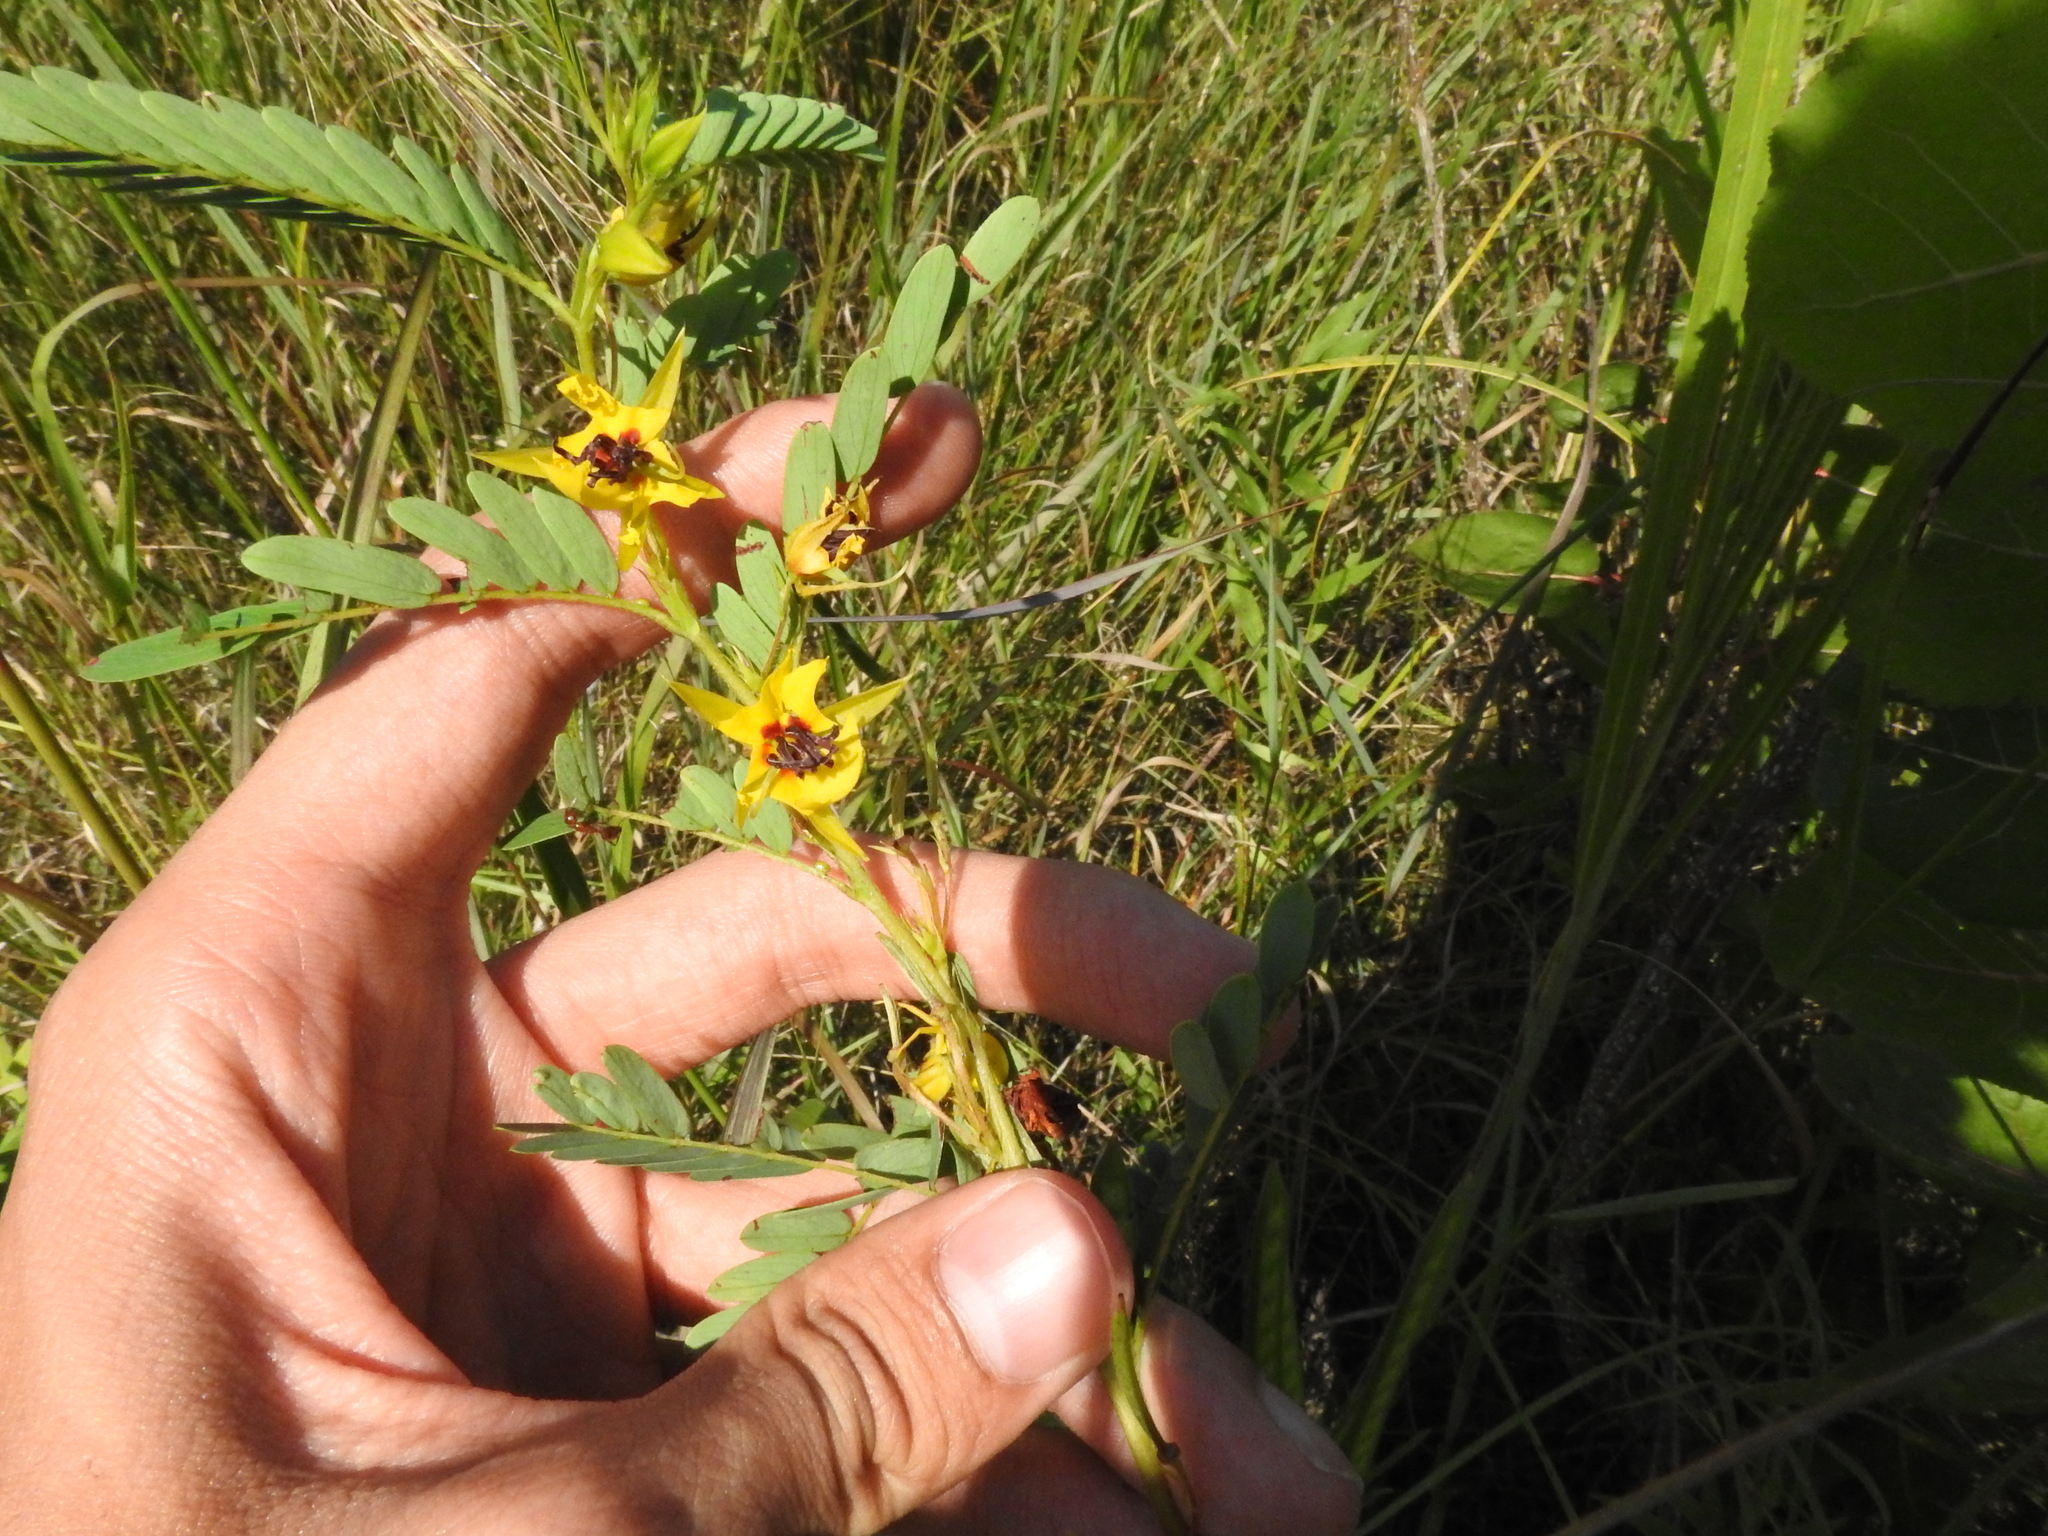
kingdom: Plantae
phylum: Tracheophyta
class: Magnoliopsida
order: Fabales
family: Fabaceae
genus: Chamaecrista
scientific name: Chamaecrista fasciculata
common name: Golden cassia
